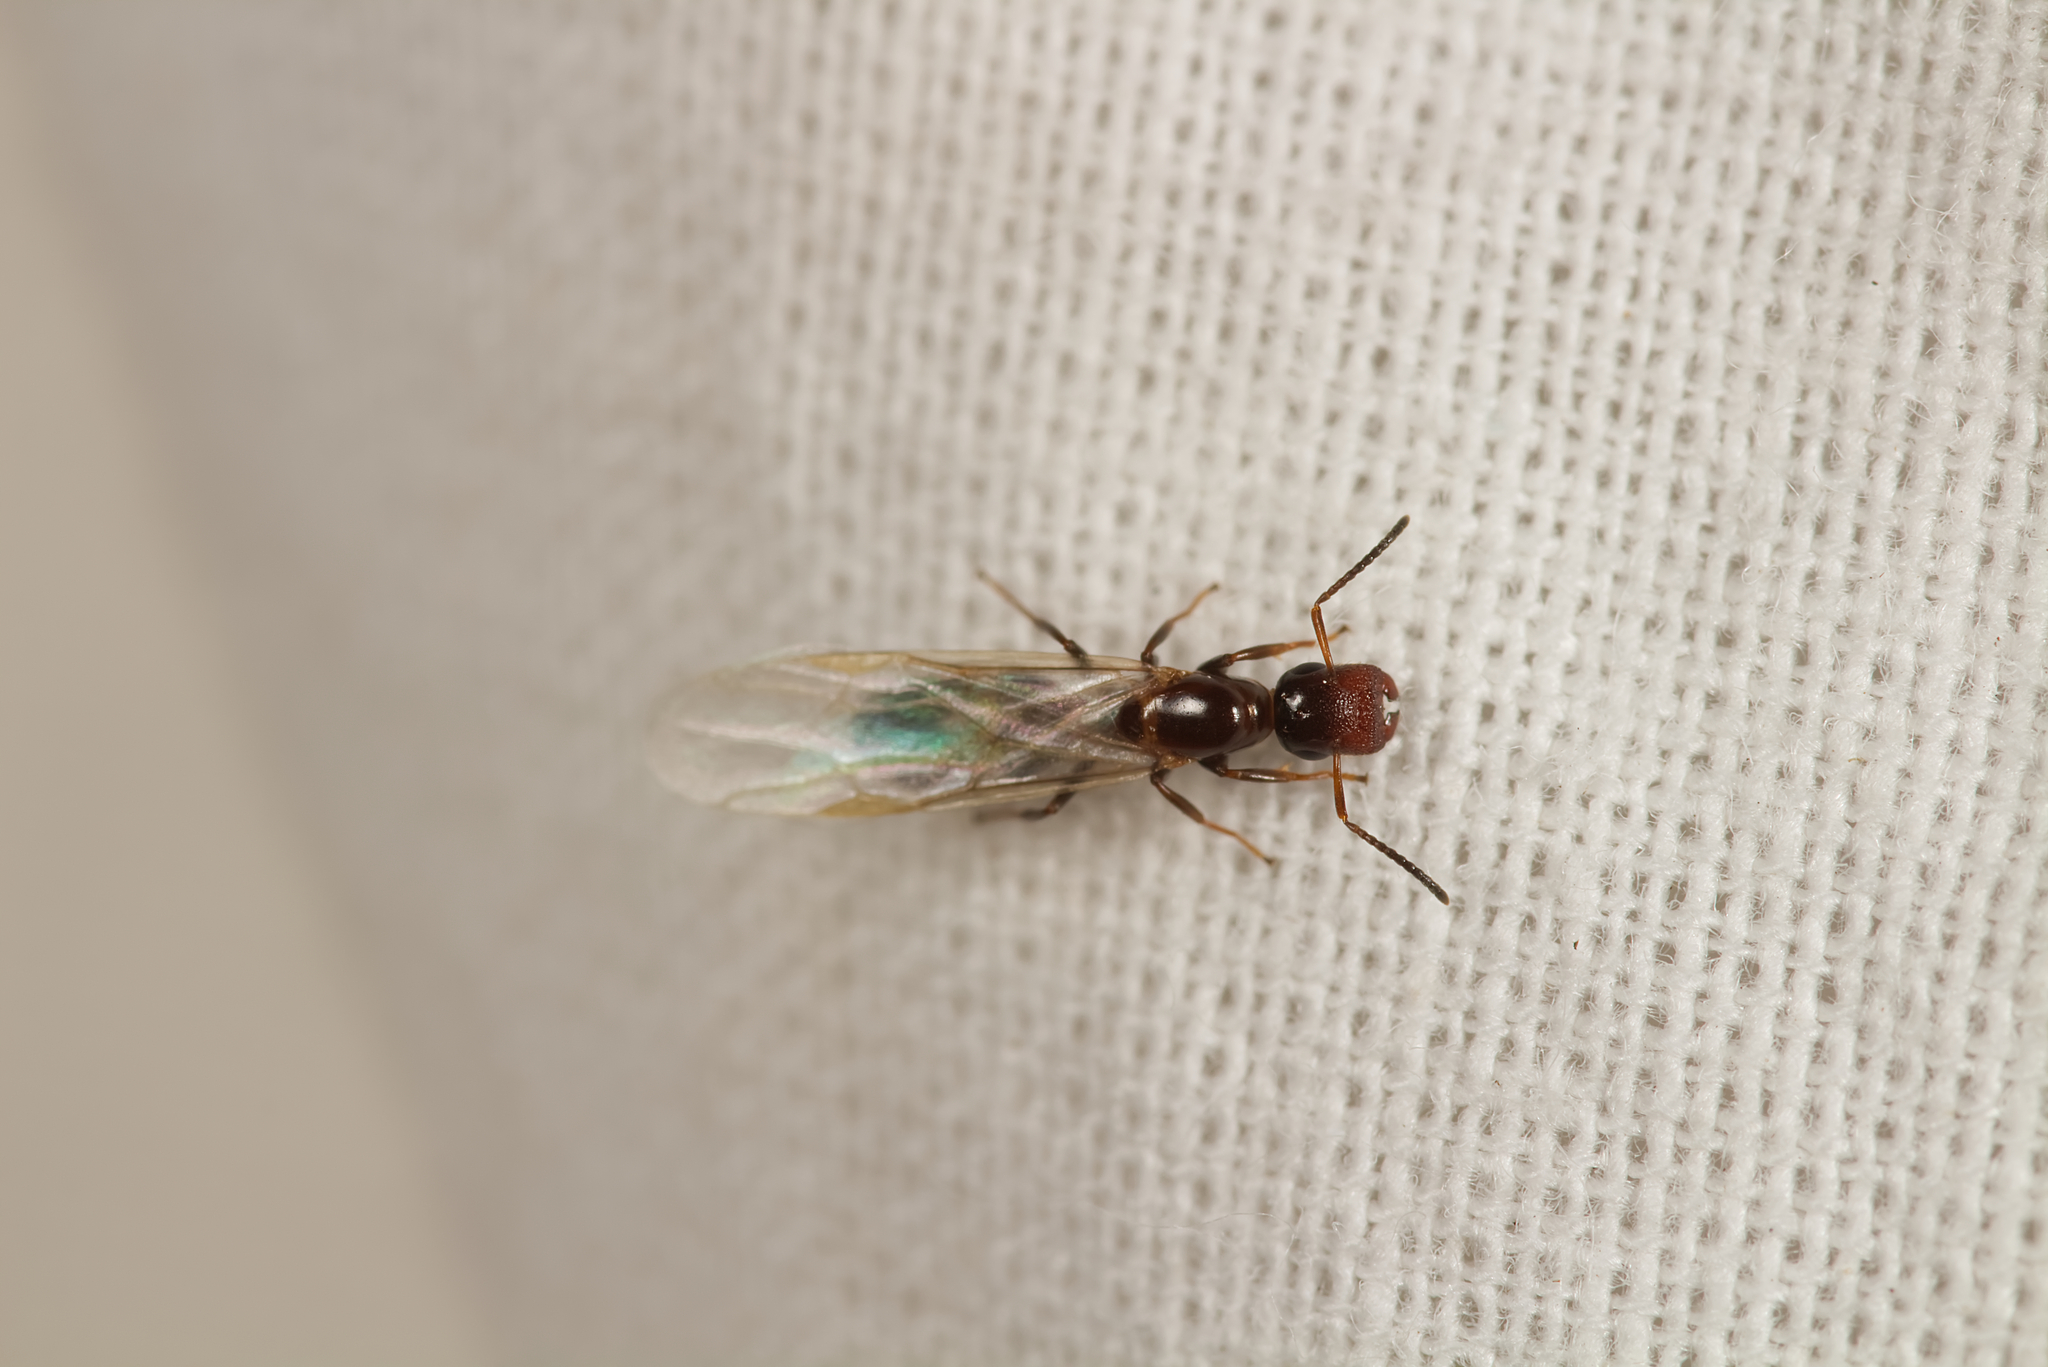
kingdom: Animalia
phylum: Arthropoda
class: Insecta
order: Hymenoptera
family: Formicidae
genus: Camponotus
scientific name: Camponotus truncatus
